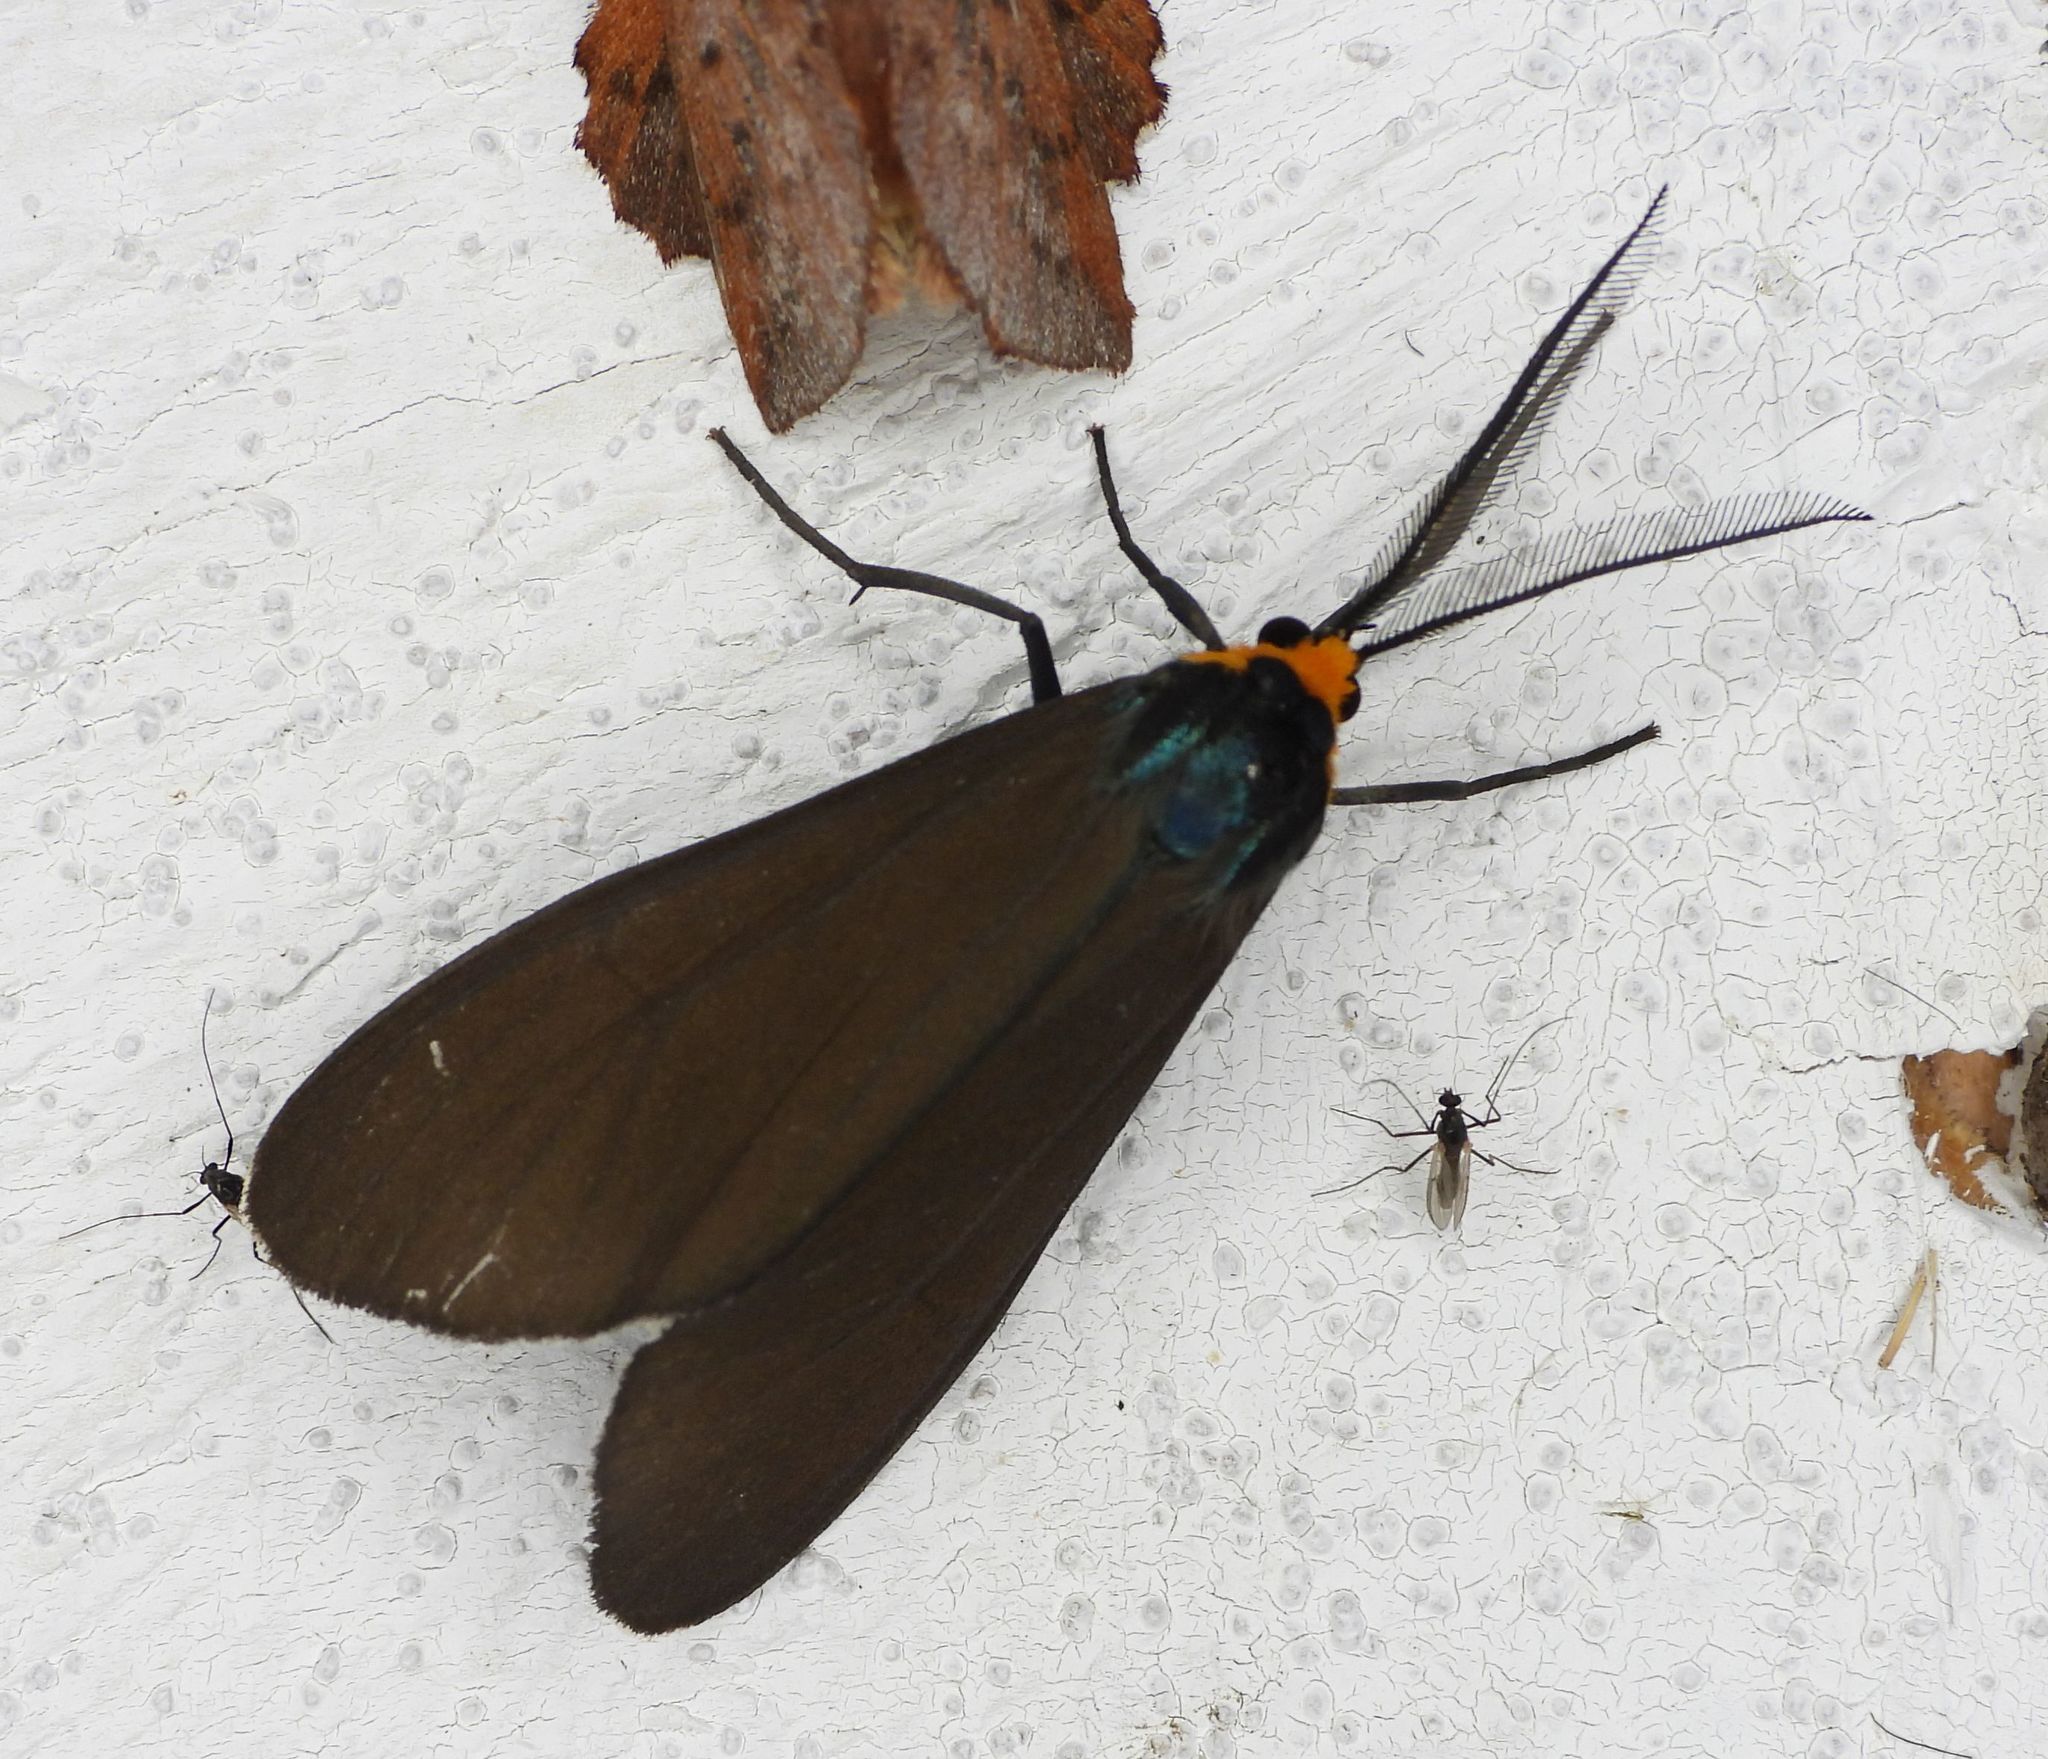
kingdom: Animalia
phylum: Arthropoda
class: Insecta
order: Lepidoptera
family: Erebidae
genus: Ctenucha
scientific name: Ctenucha virginica
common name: Virginia ctenucha moth
